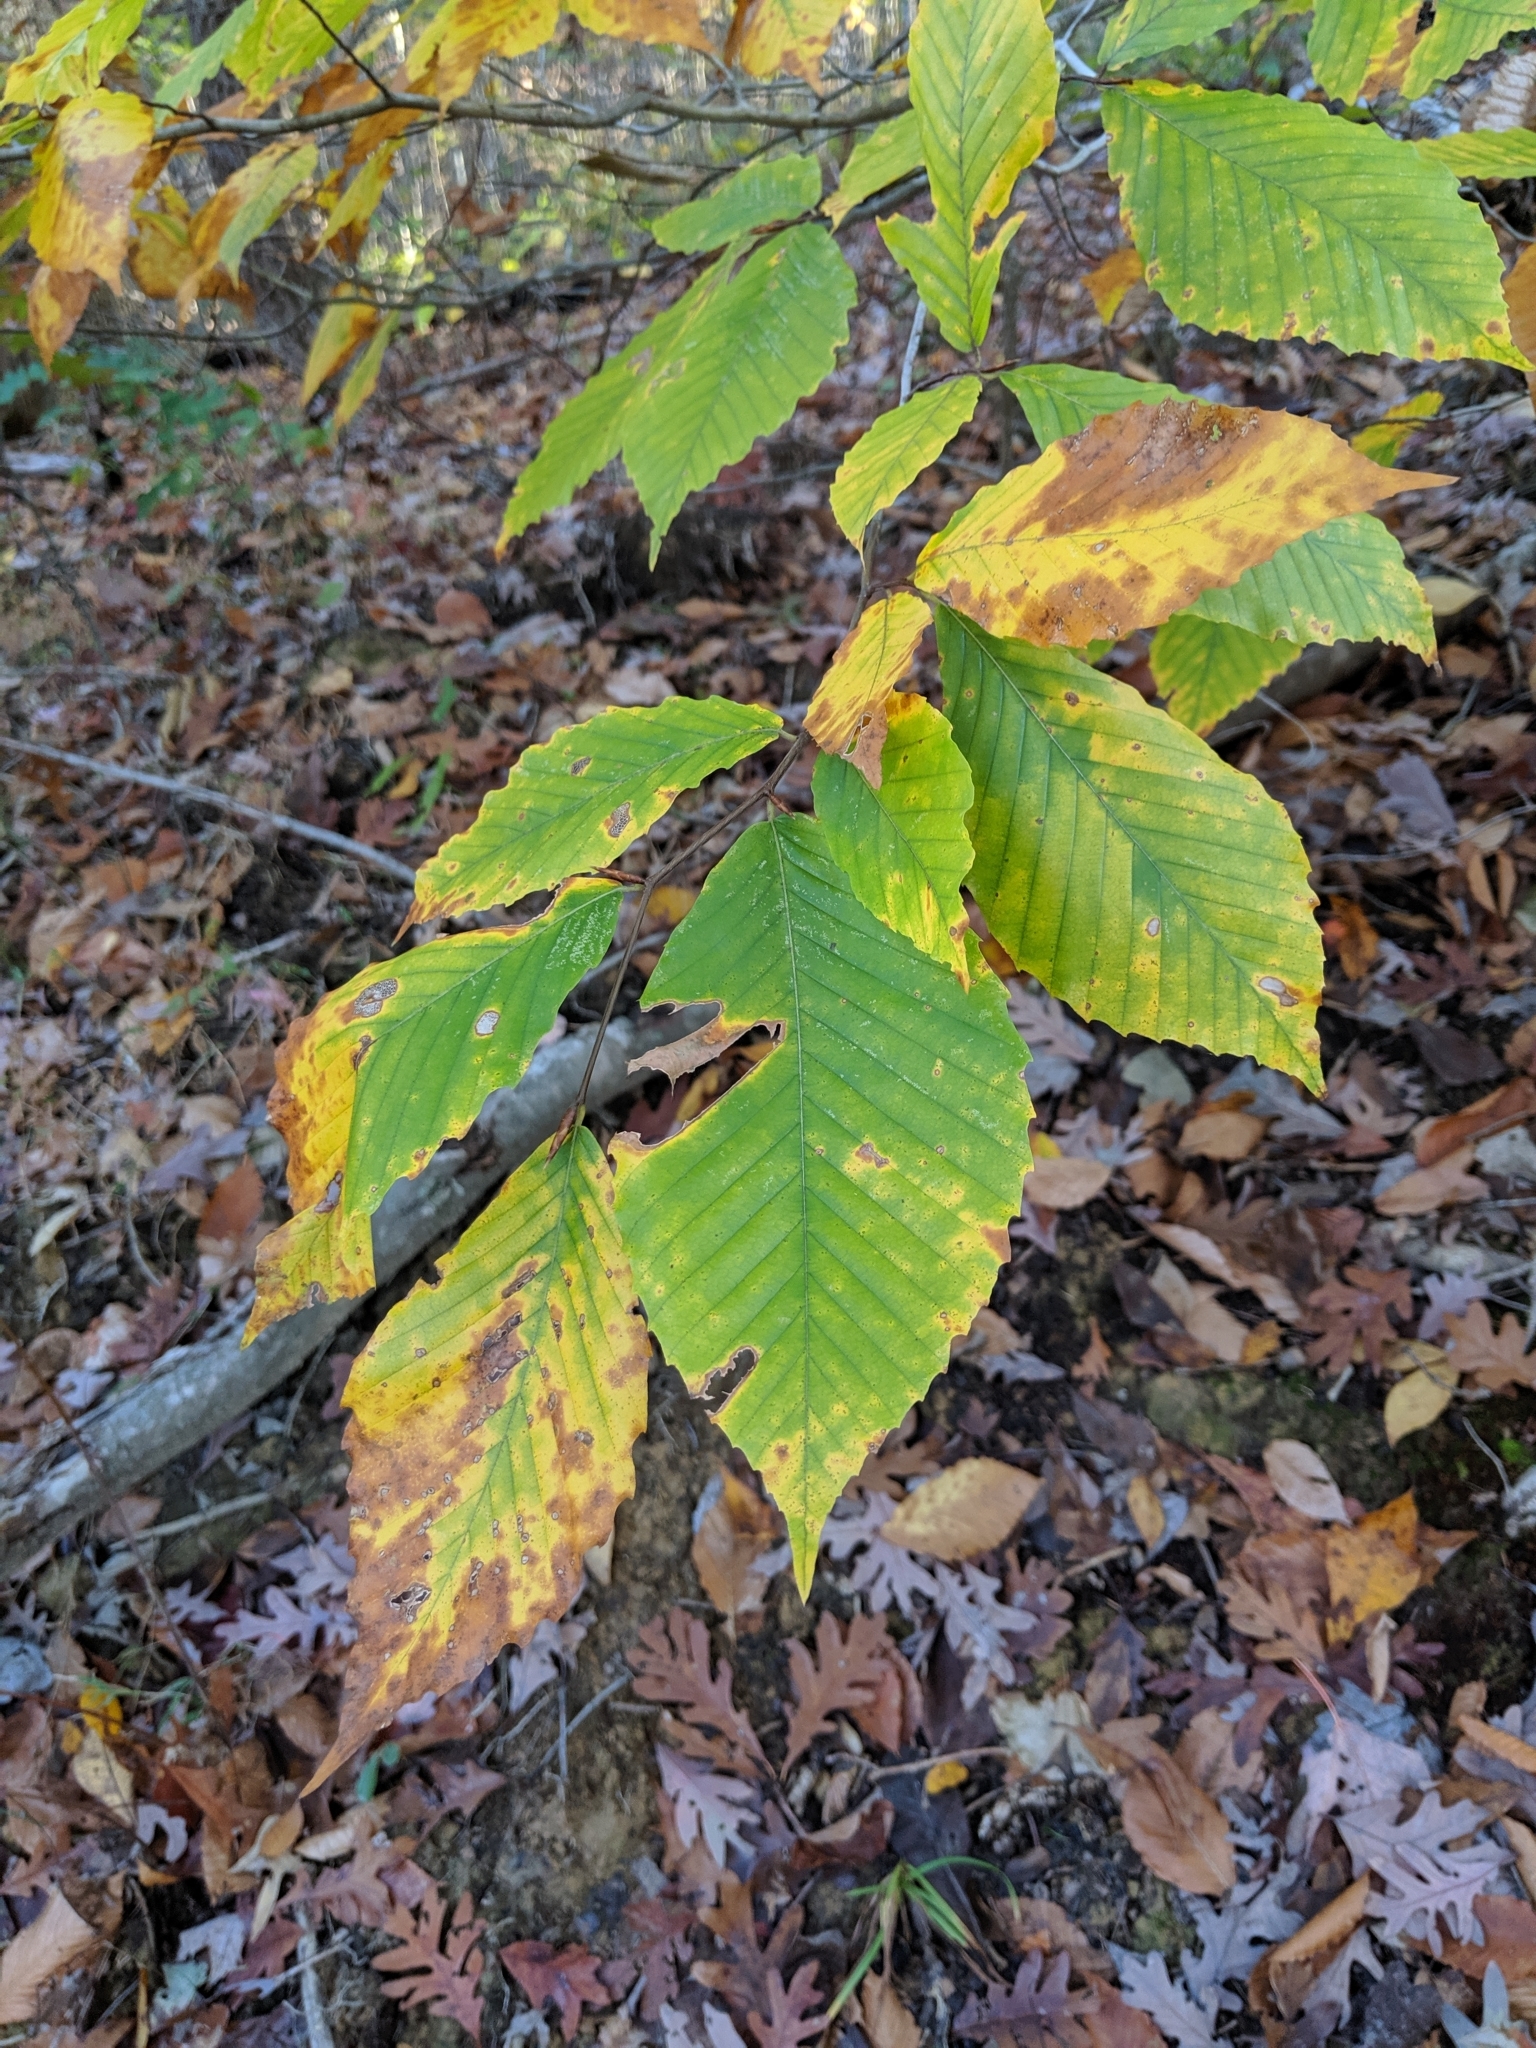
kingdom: Plantae
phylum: Tracheophyta
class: Magnoliopsida
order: Fagales
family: Fagaceae
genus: Fagus
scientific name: Fagus grandifolia
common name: American beech
